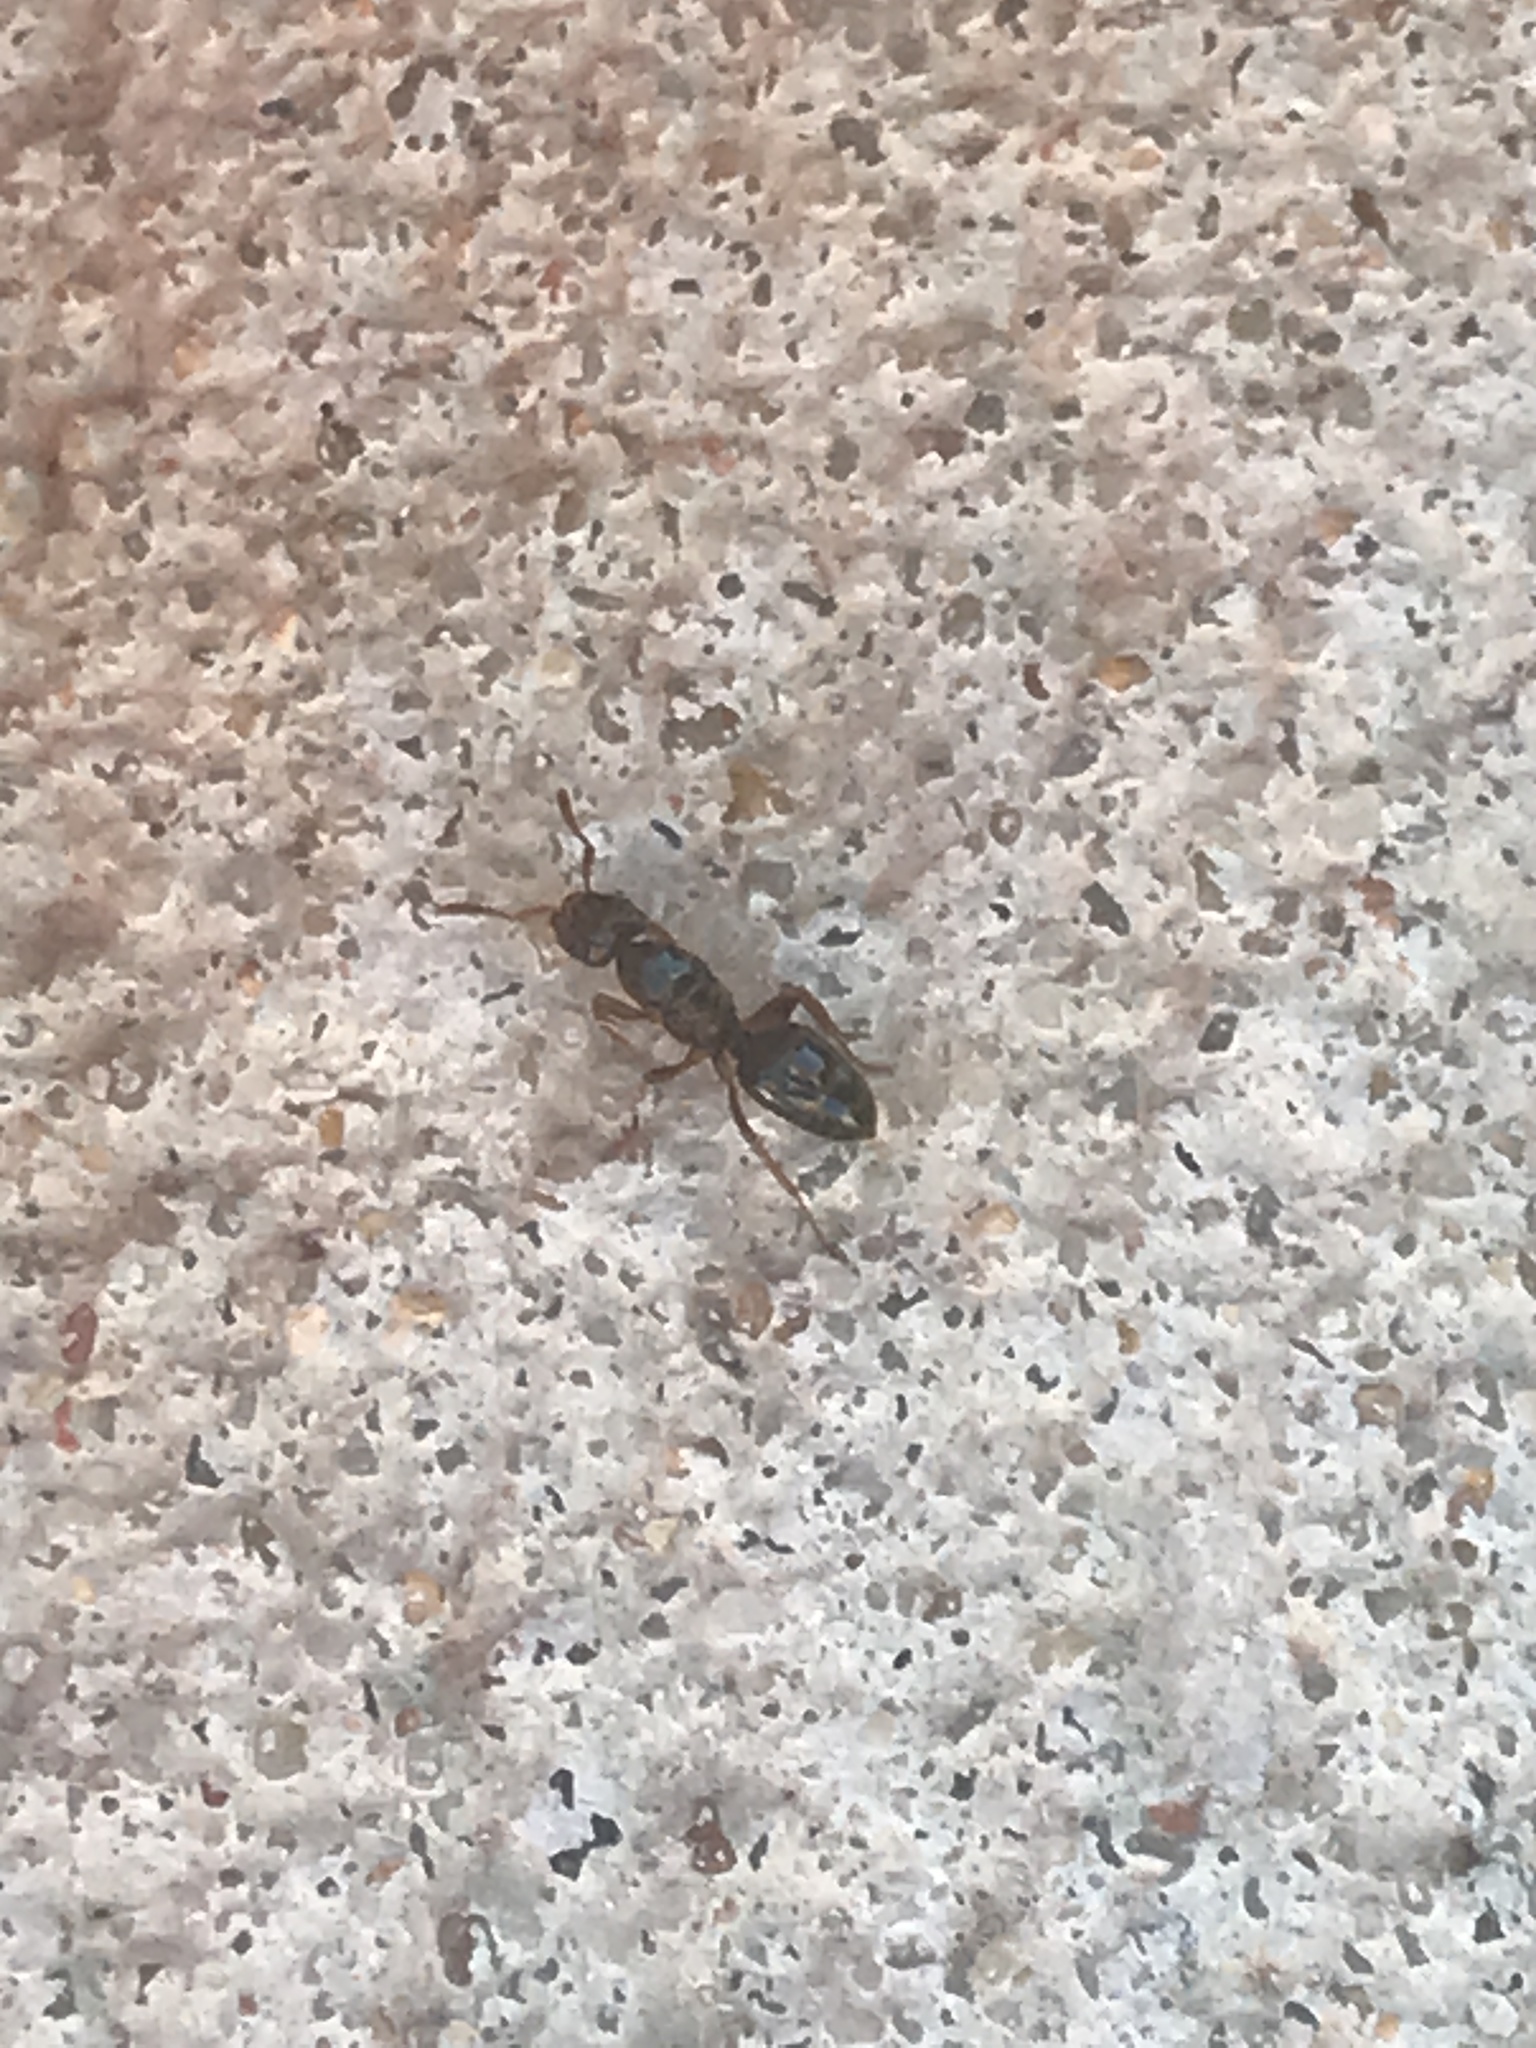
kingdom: Animalia
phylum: Arthropoda
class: Insecta
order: Hymenoptera
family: Formicidae
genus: Lasius
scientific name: Lasius claviger
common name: Common citronella ant
